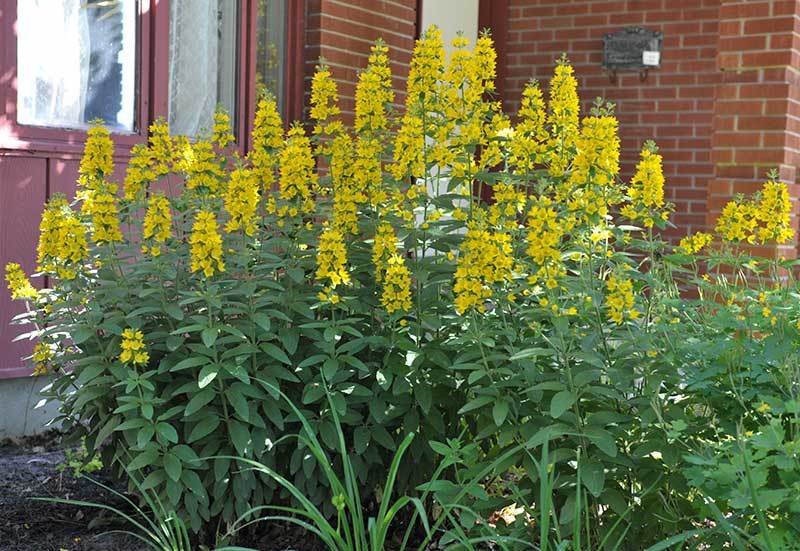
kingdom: Plantae
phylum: Tracheophyta
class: Magnoliopsida
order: Ericales
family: Primulaceae
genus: Lysimachia
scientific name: Lysimachia punctata
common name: Dotted loosestrife
